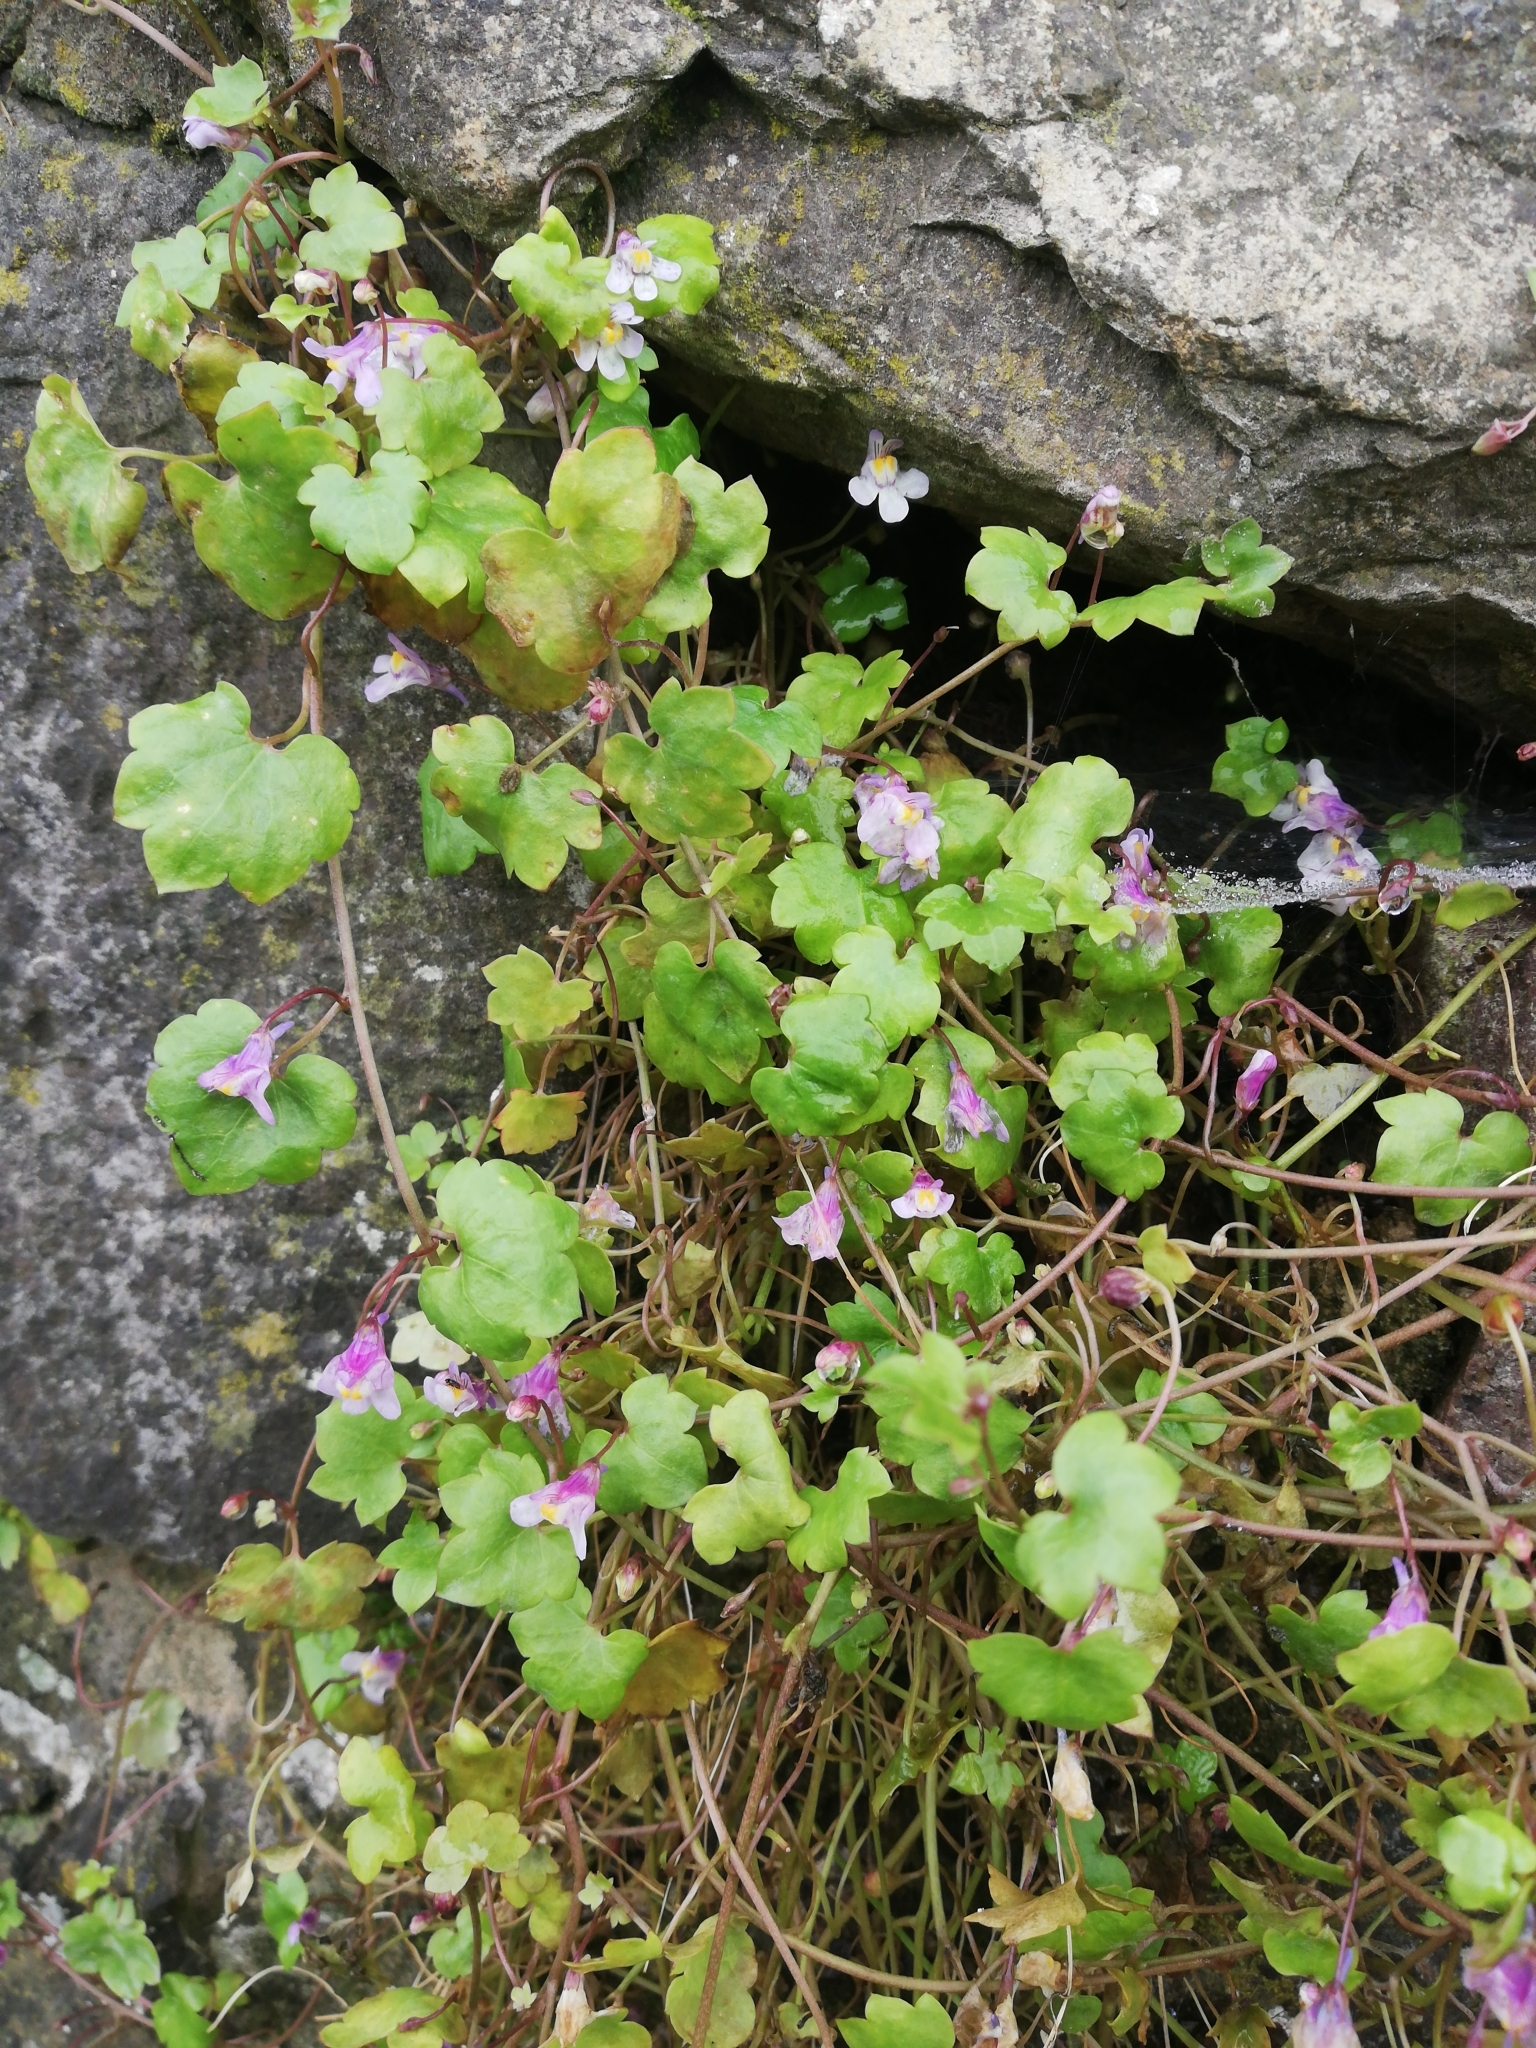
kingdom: Plantae
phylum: Tracheophyta
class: Magnoliopsida
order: Lamiales
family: Plantaginaceae
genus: Cymbalaria
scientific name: Cymbalaria muralis
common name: Ivy-leaved toadflax
